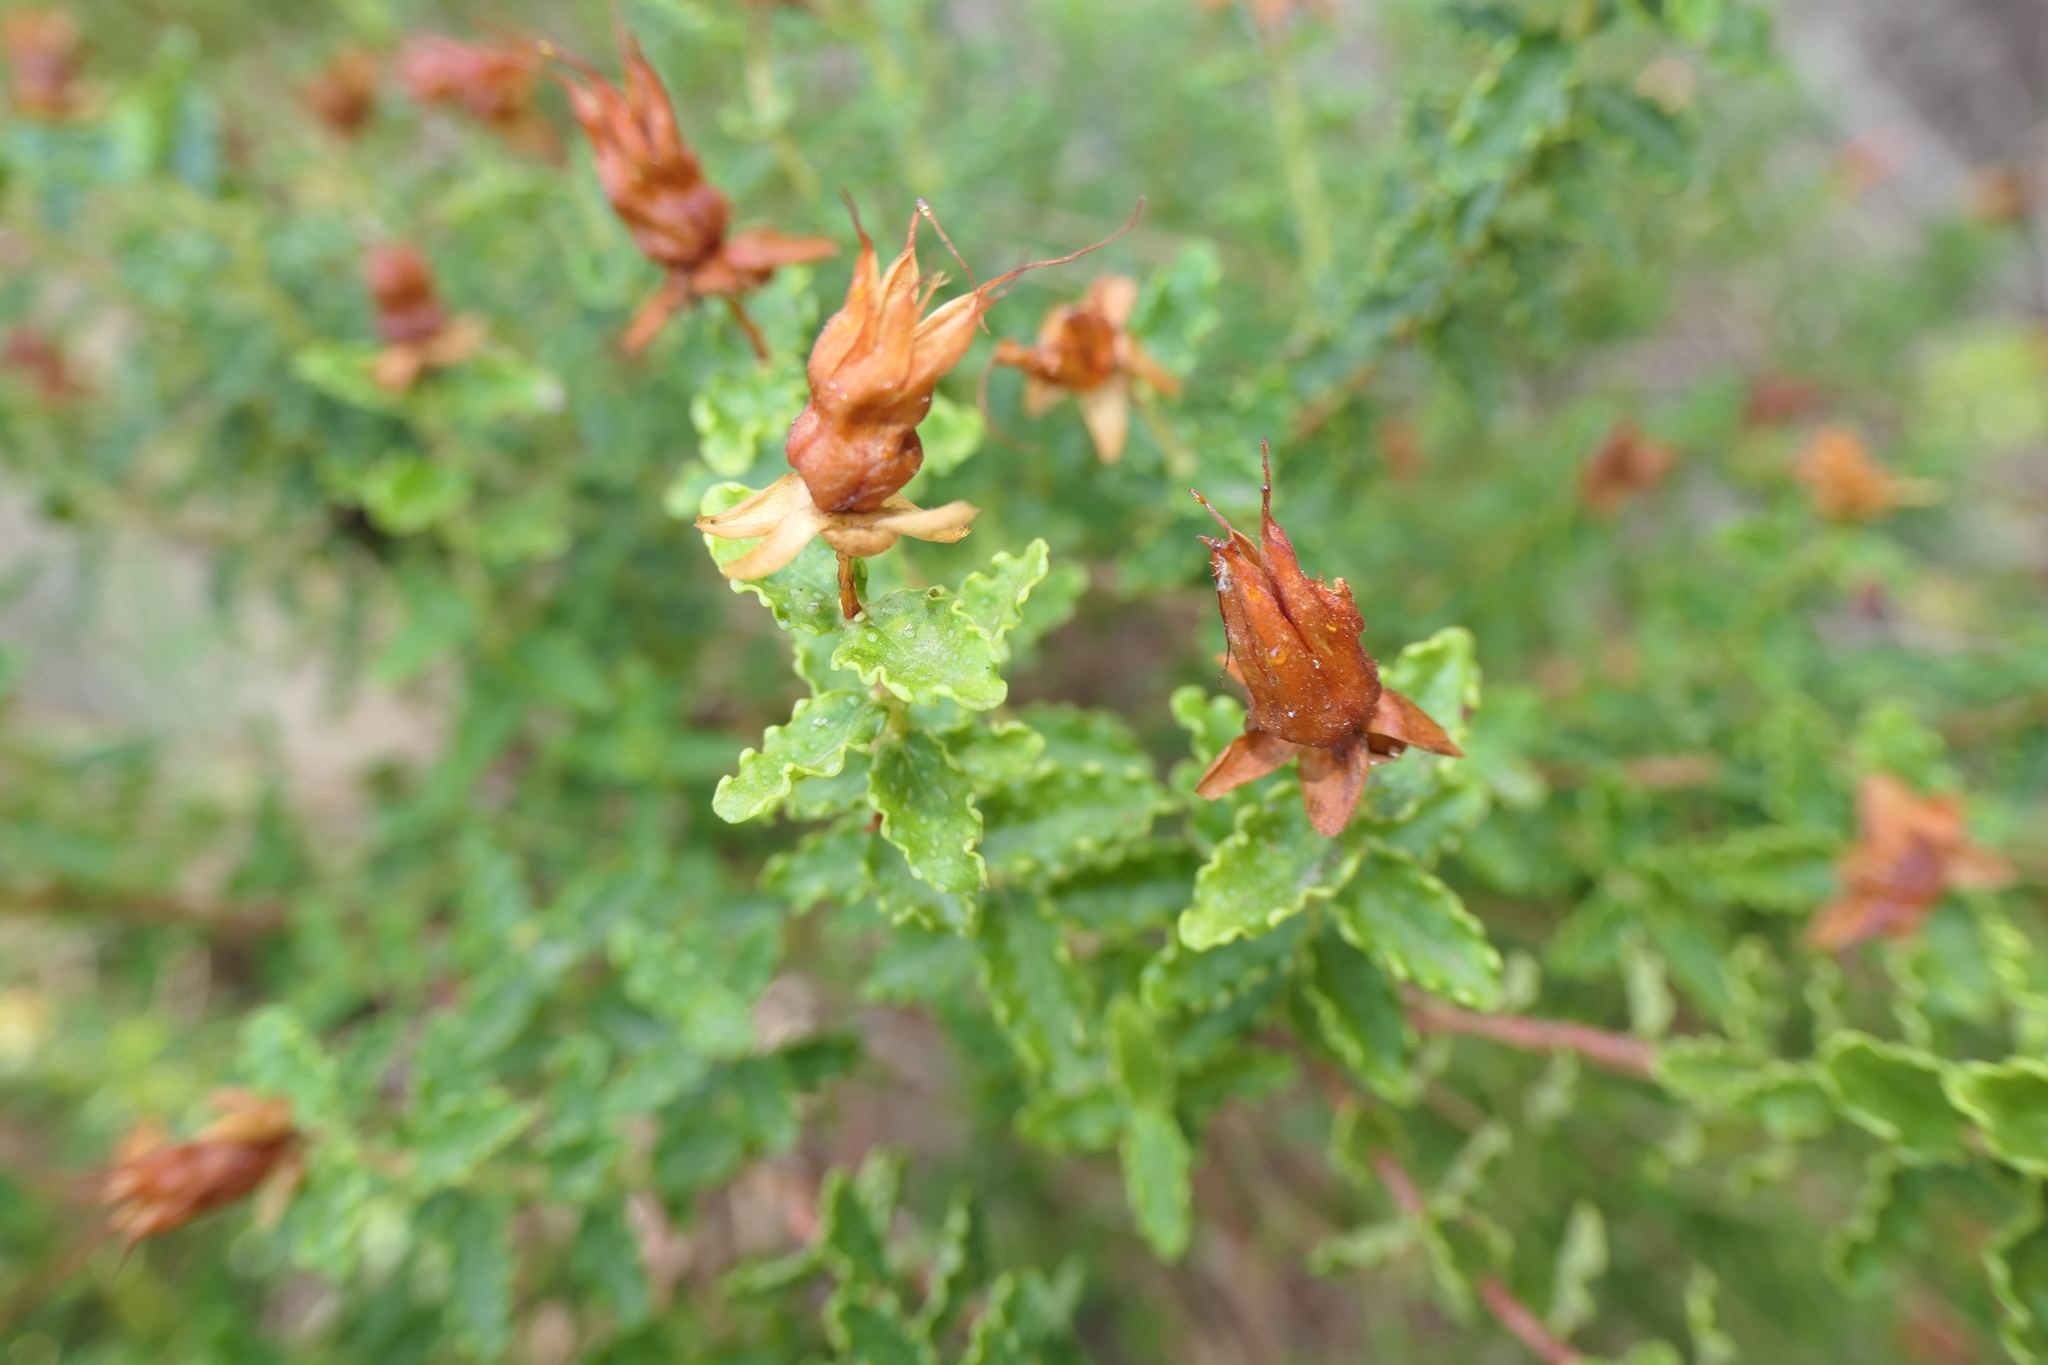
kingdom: Plantae
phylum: Tracheophyta
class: Magnoliopsida
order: Malpighiales
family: Hypericaceae
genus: Hypericum
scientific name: Hypericum balearicum
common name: Majorca st john's wort
